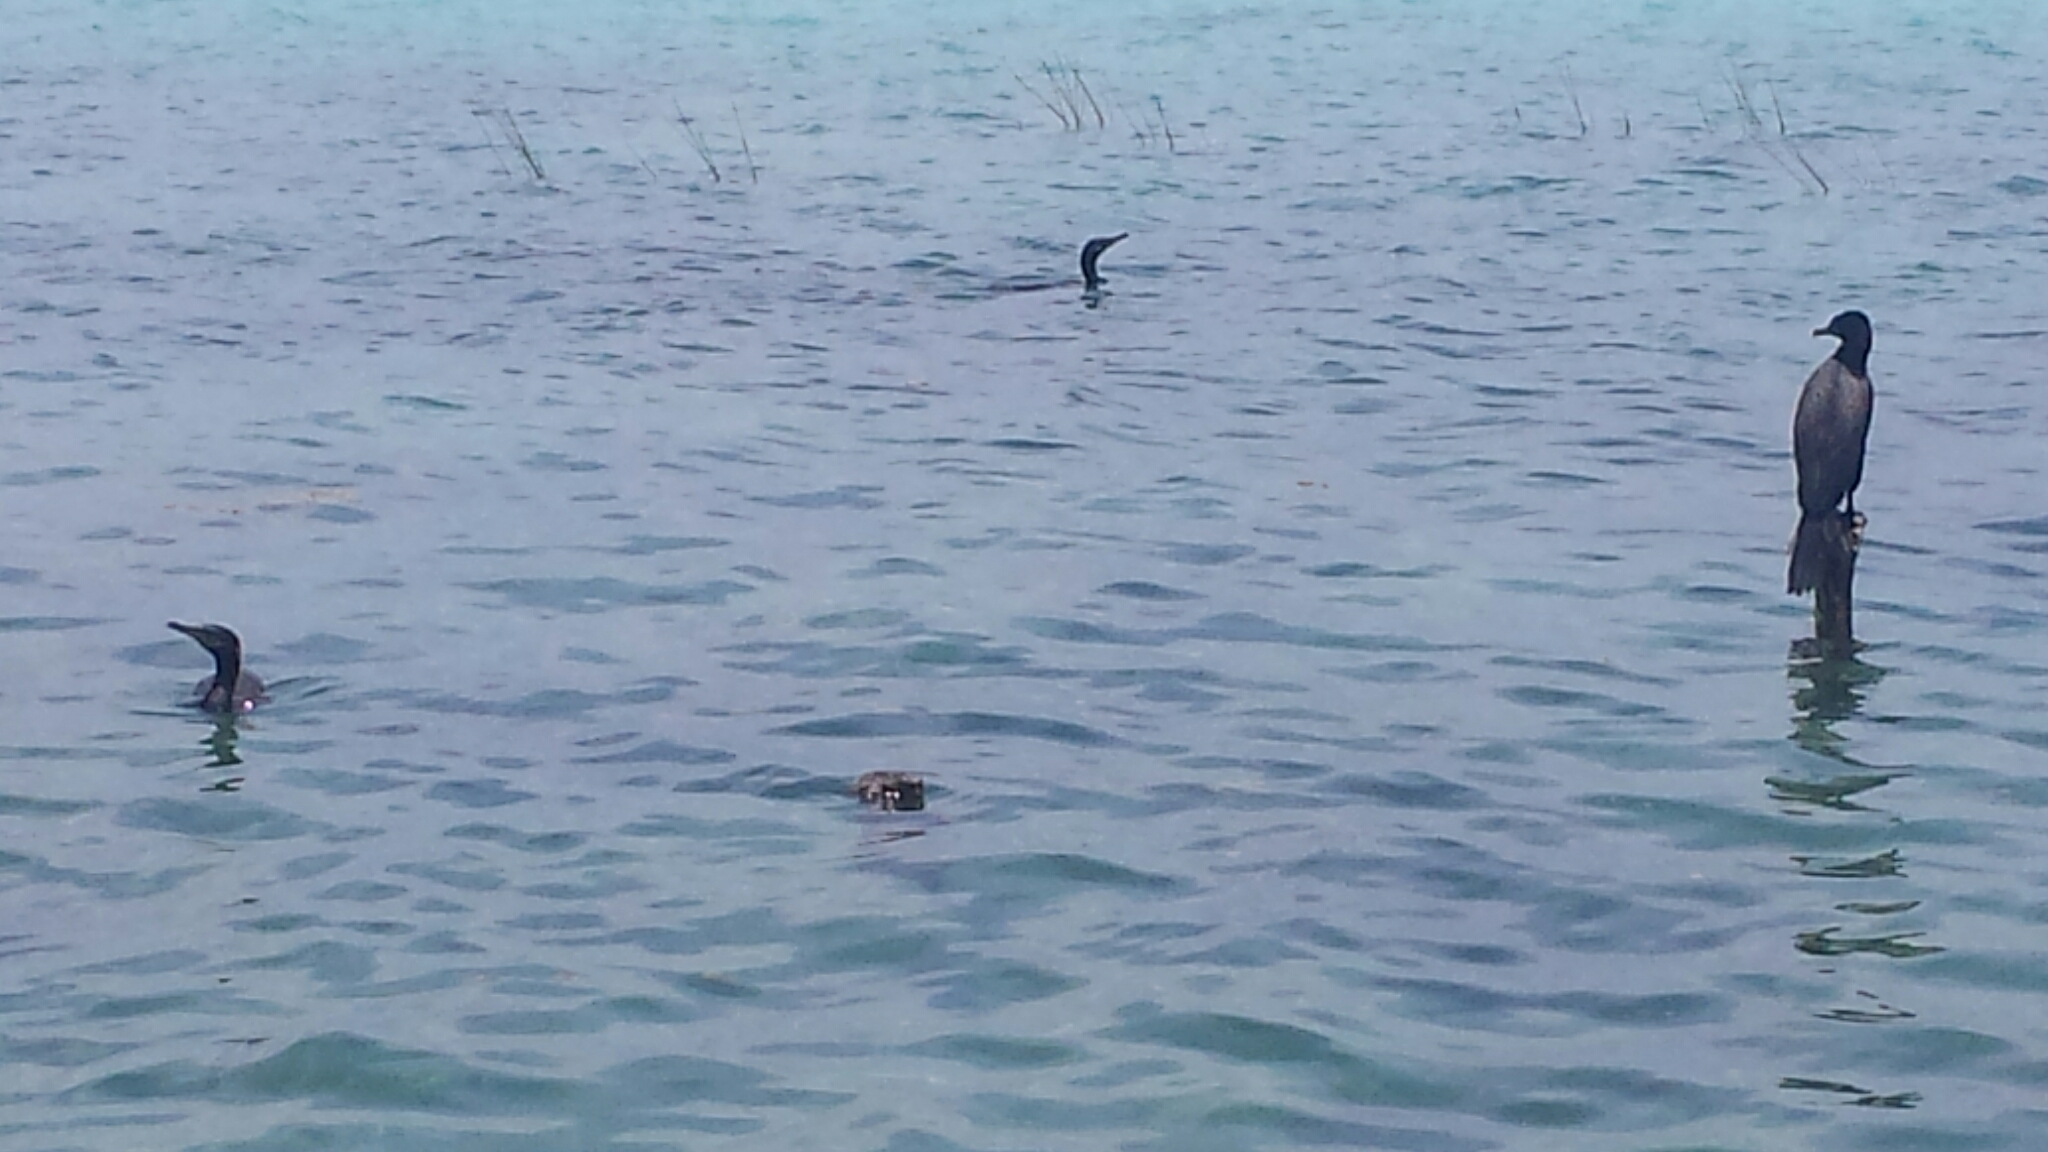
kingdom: Animalia
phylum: Chordata
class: Aves
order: Suliformes
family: Phalacrocoracidae
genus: Phalacrocorax
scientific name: Phalacrocorax brasilianus
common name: Neotropic cormorant
